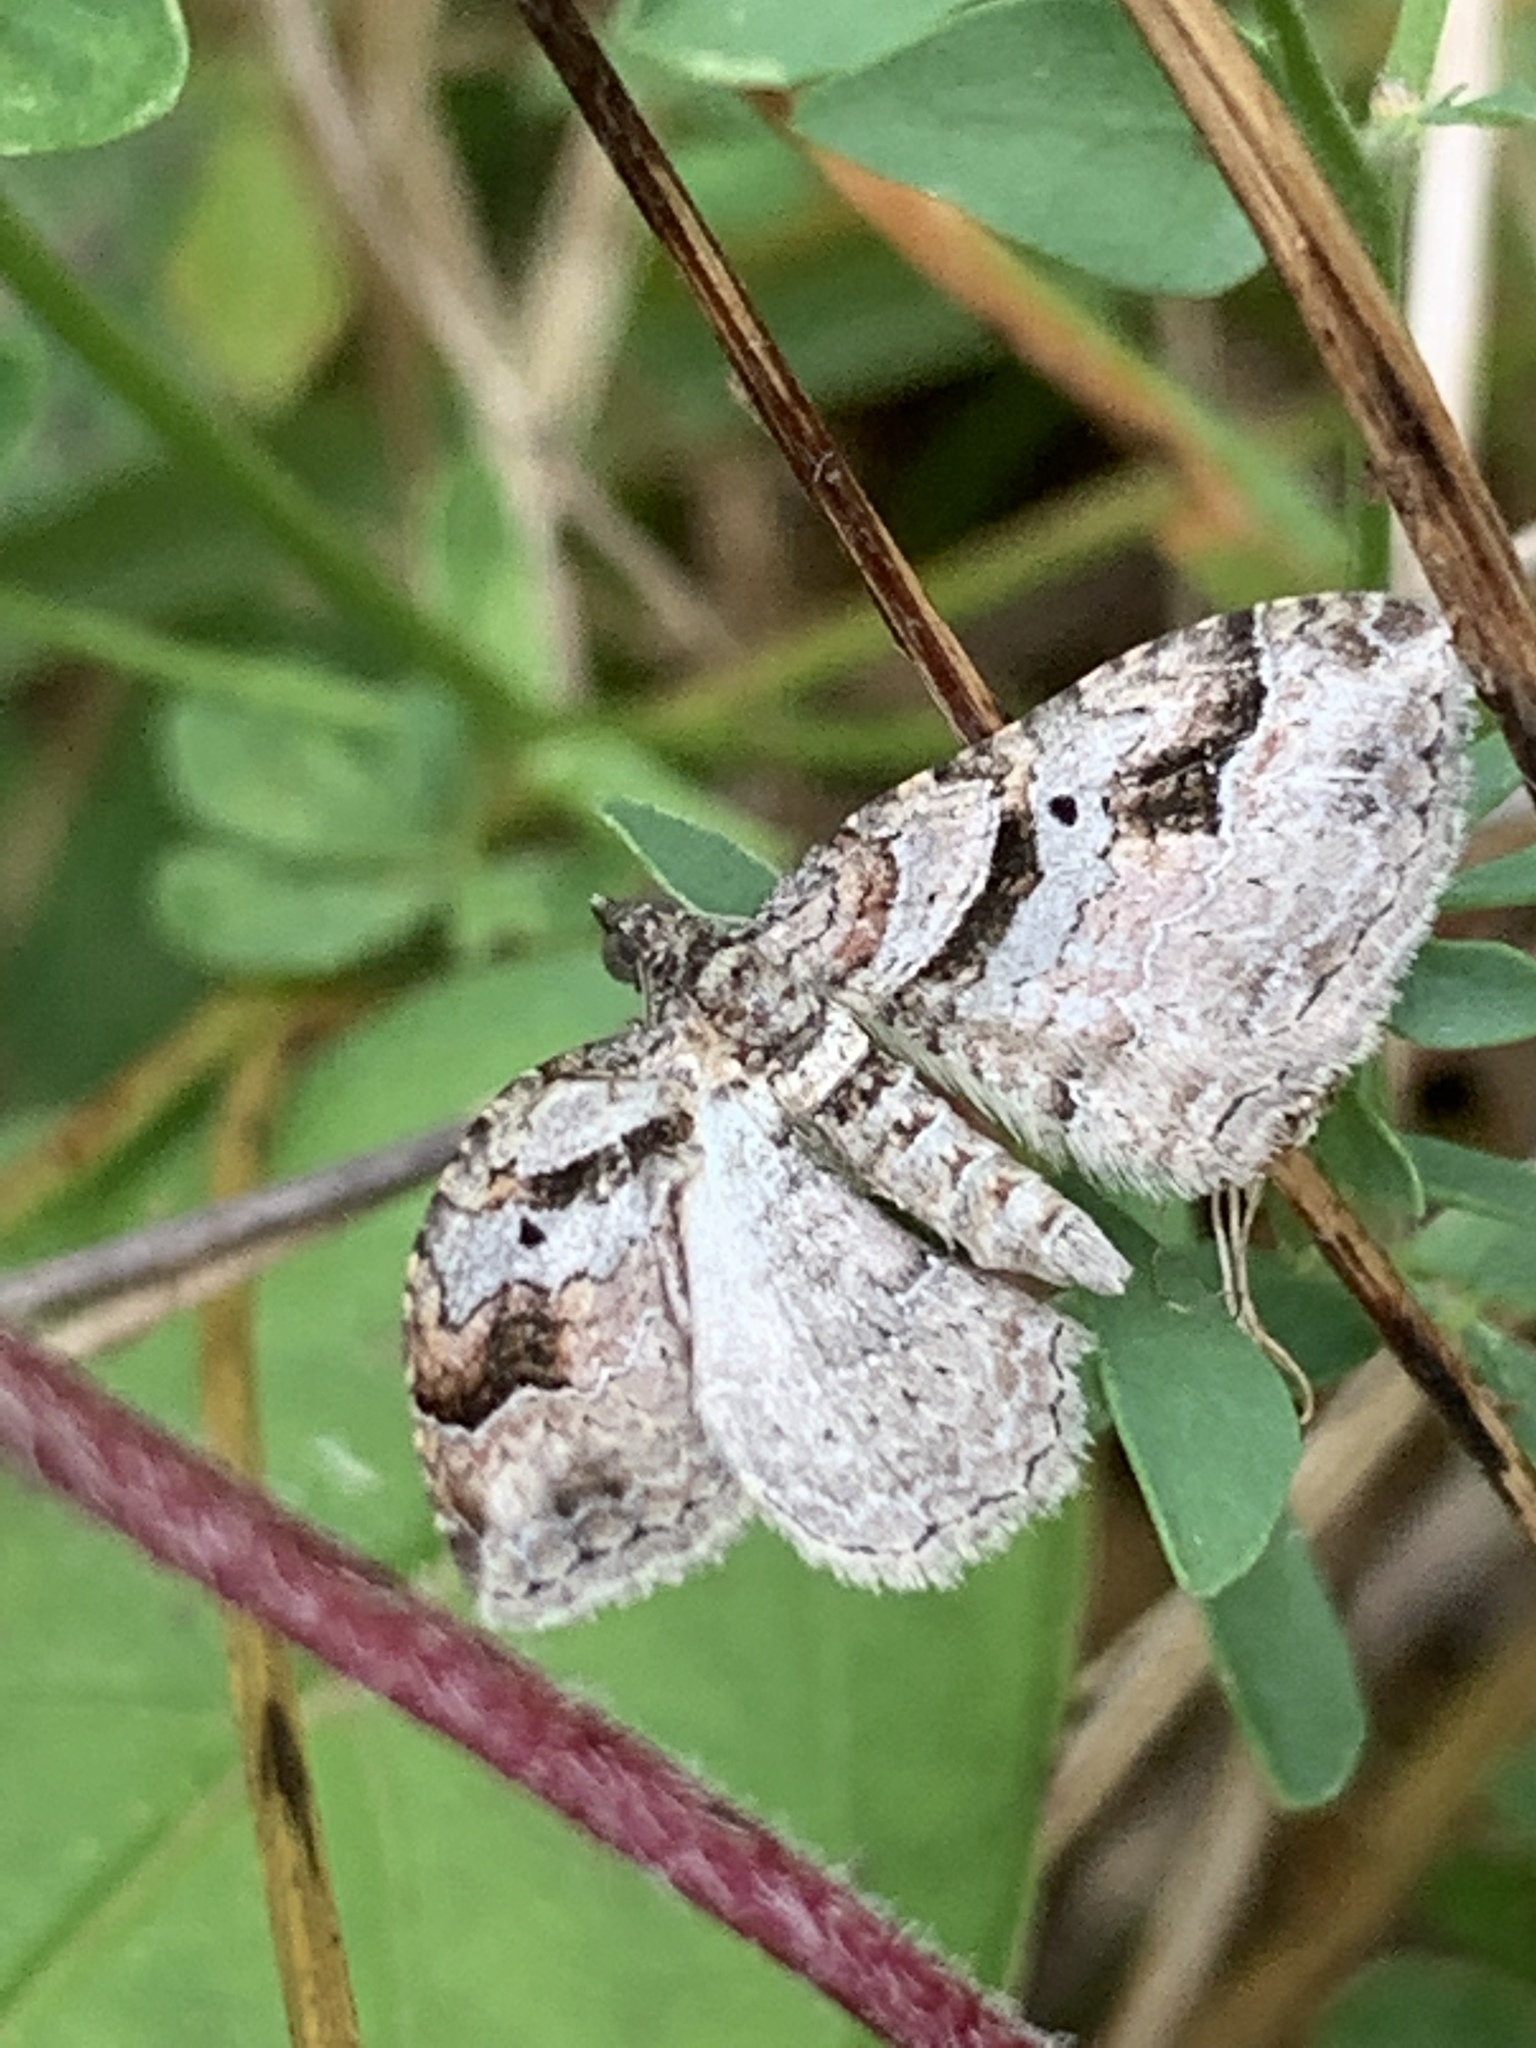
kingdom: Animalia
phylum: Arthropoda
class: Insecta
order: Lepidoptera
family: Geometridae
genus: Costaconvexa
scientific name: Costaconvexa centrostrigaria
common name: Bent-line carpet
